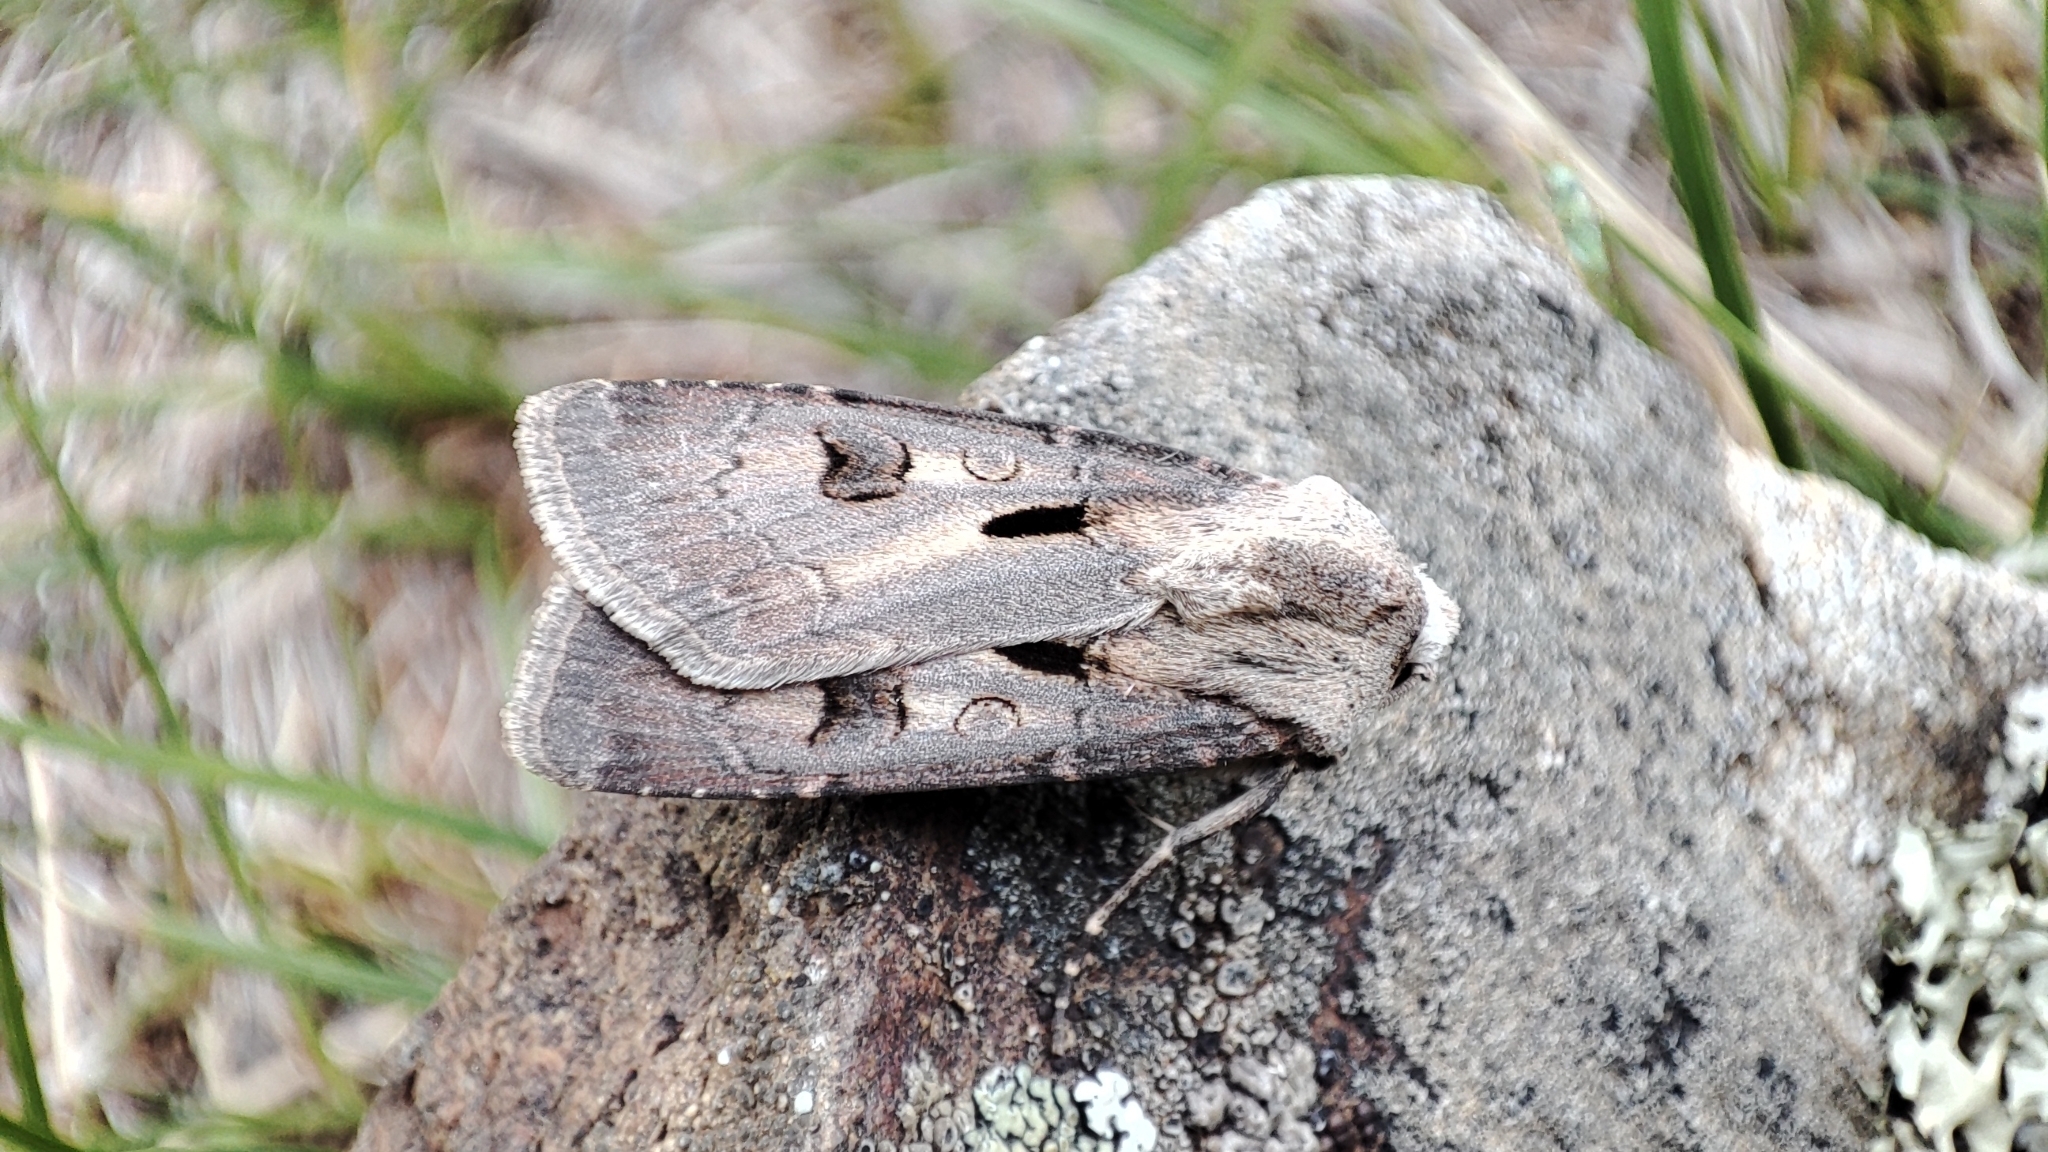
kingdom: Animalia
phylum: Arthropoda
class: Insecta
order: Lepidoptera
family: Noctuidae
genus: Agrotis
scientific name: Agrotis exclamationis
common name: Heart and dart
